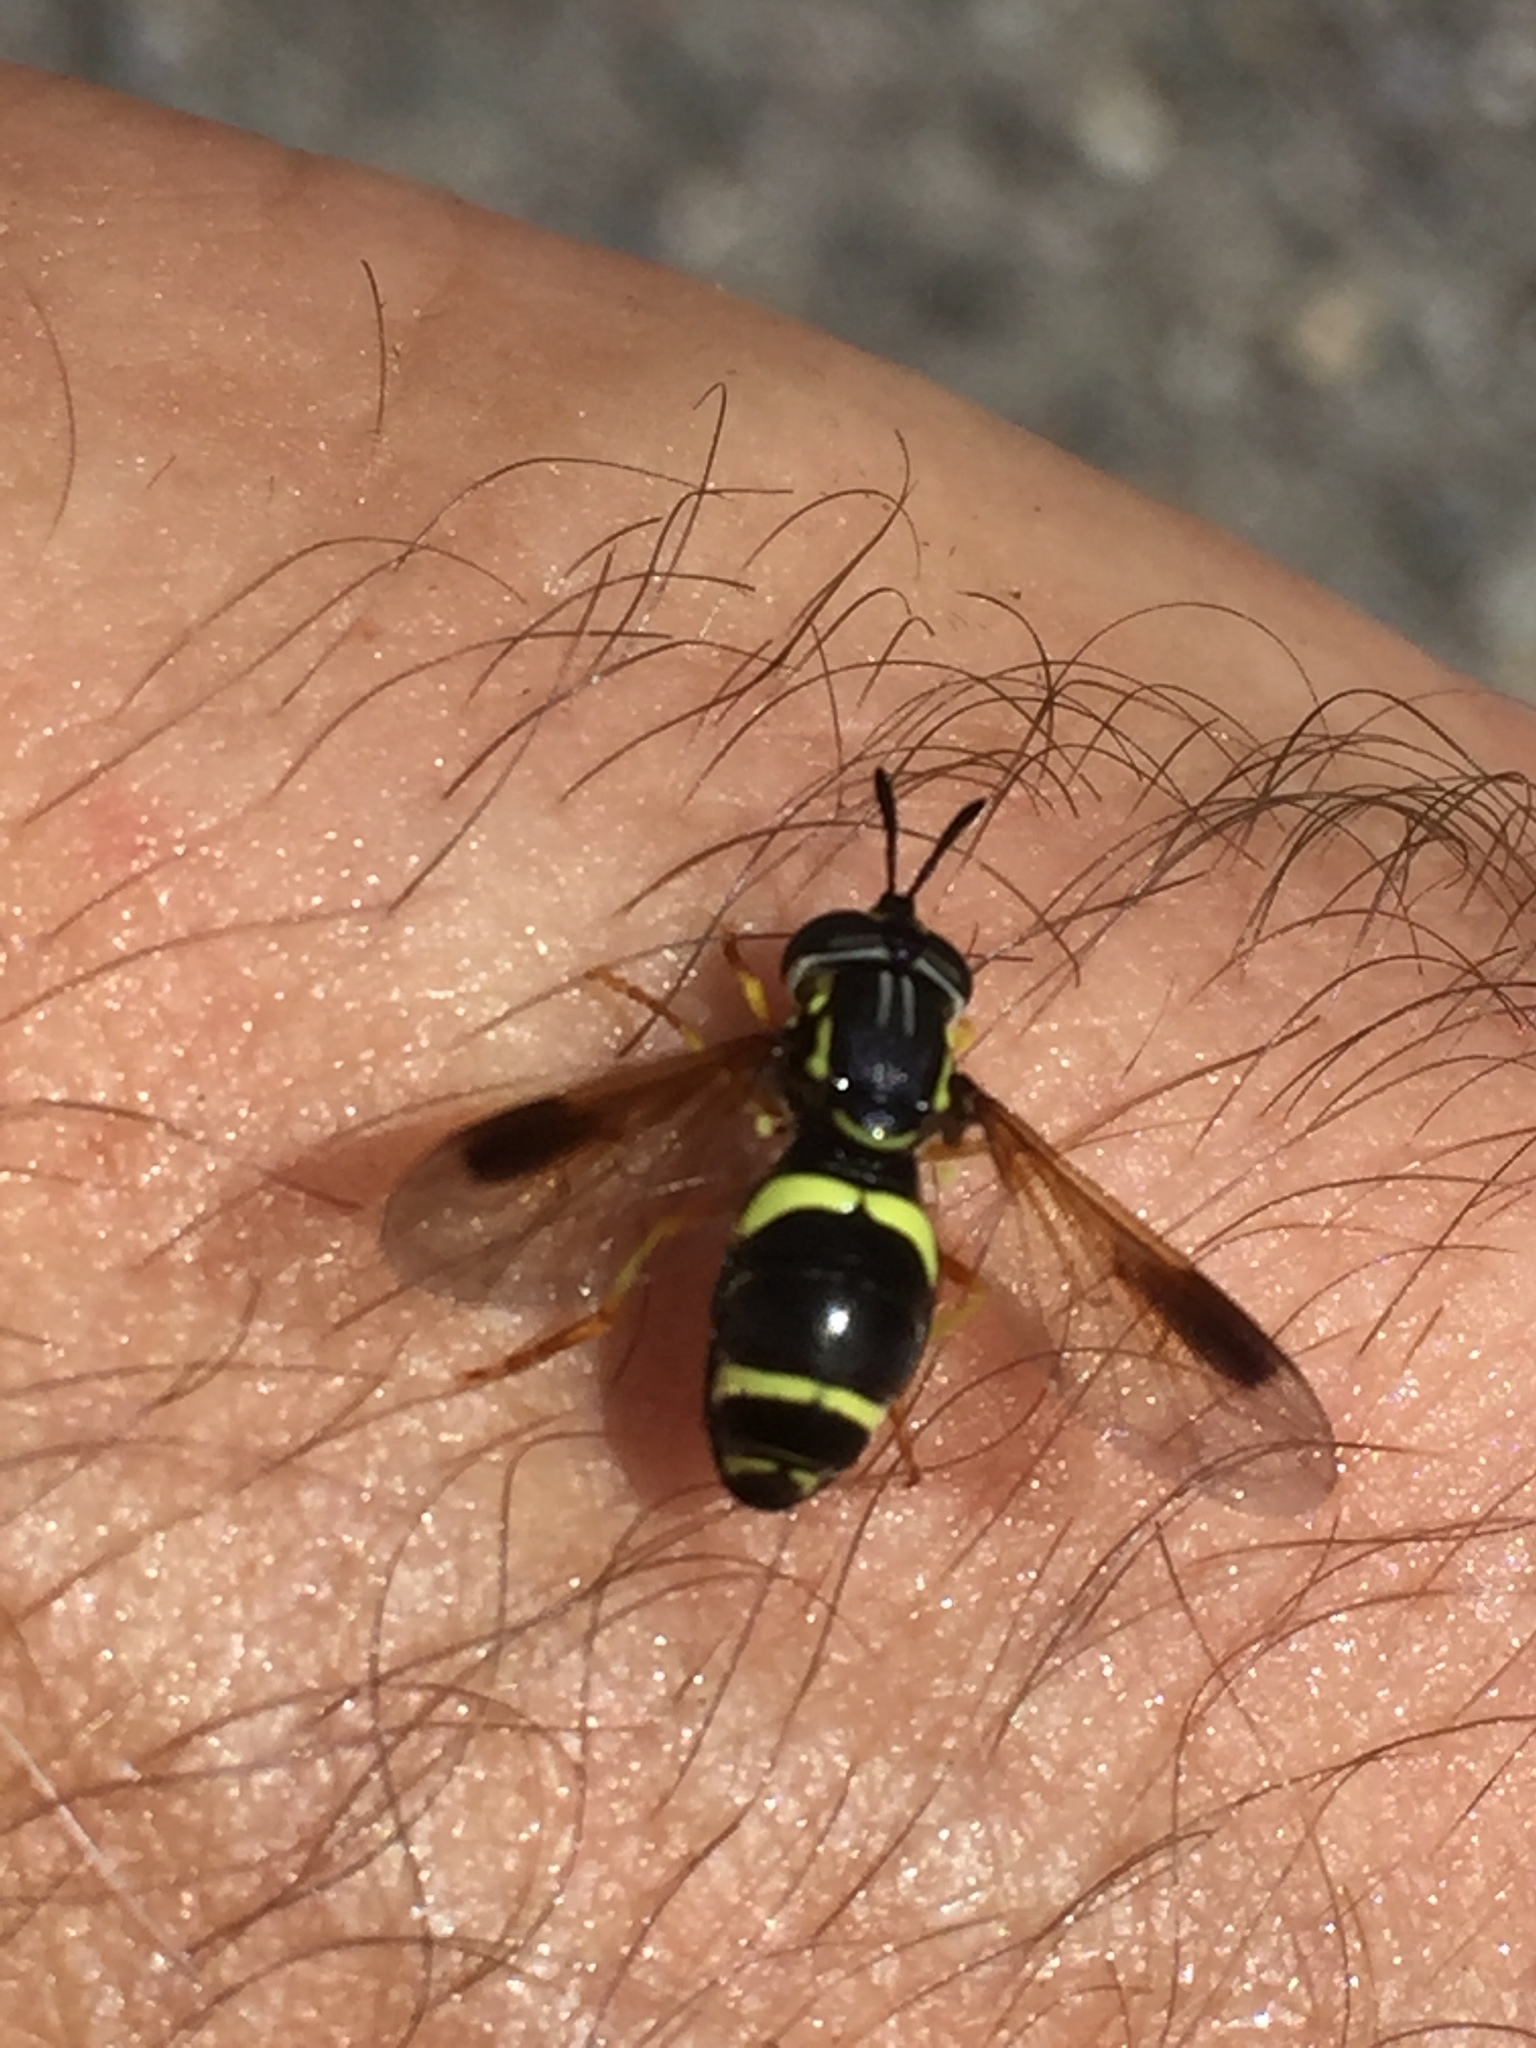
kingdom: Animalia
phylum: Arthropoda
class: Insecta
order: Diptera
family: Syrphidae
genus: Chrysotoxum
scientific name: Chrysotoxum bicincta
